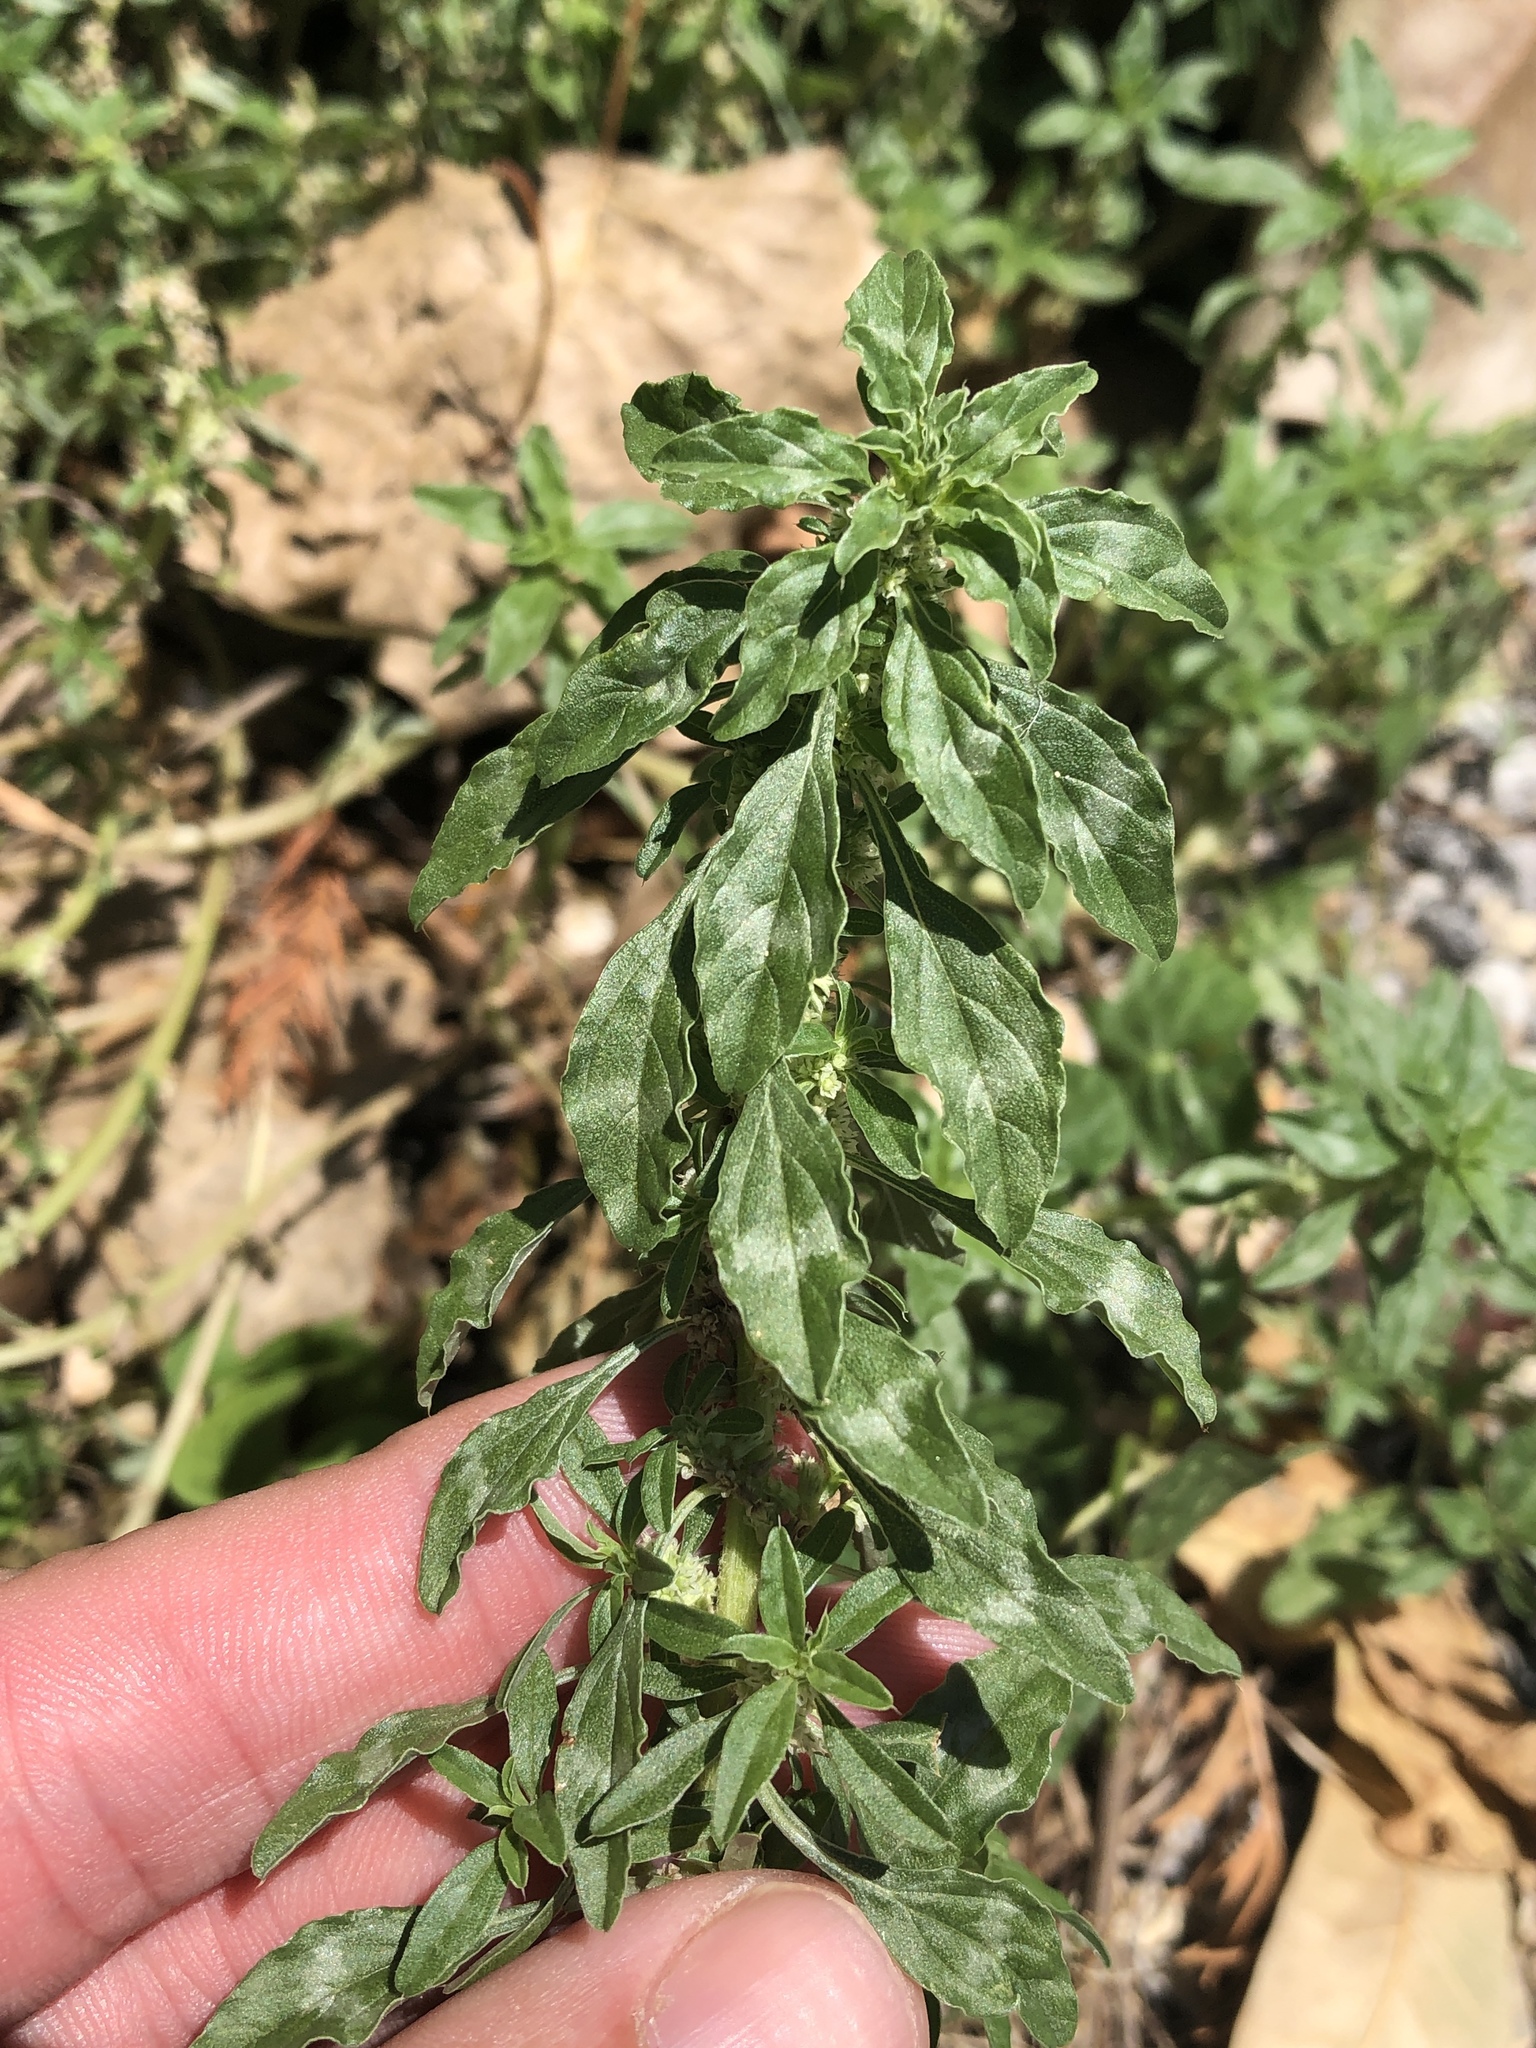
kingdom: Plantae
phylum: Tracheophyta
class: Magnoliopsida
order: Caryophyllales
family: Amaranthaceae
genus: Amaranthus
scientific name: Amaranthus polygonoides
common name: Tropical amaranth
